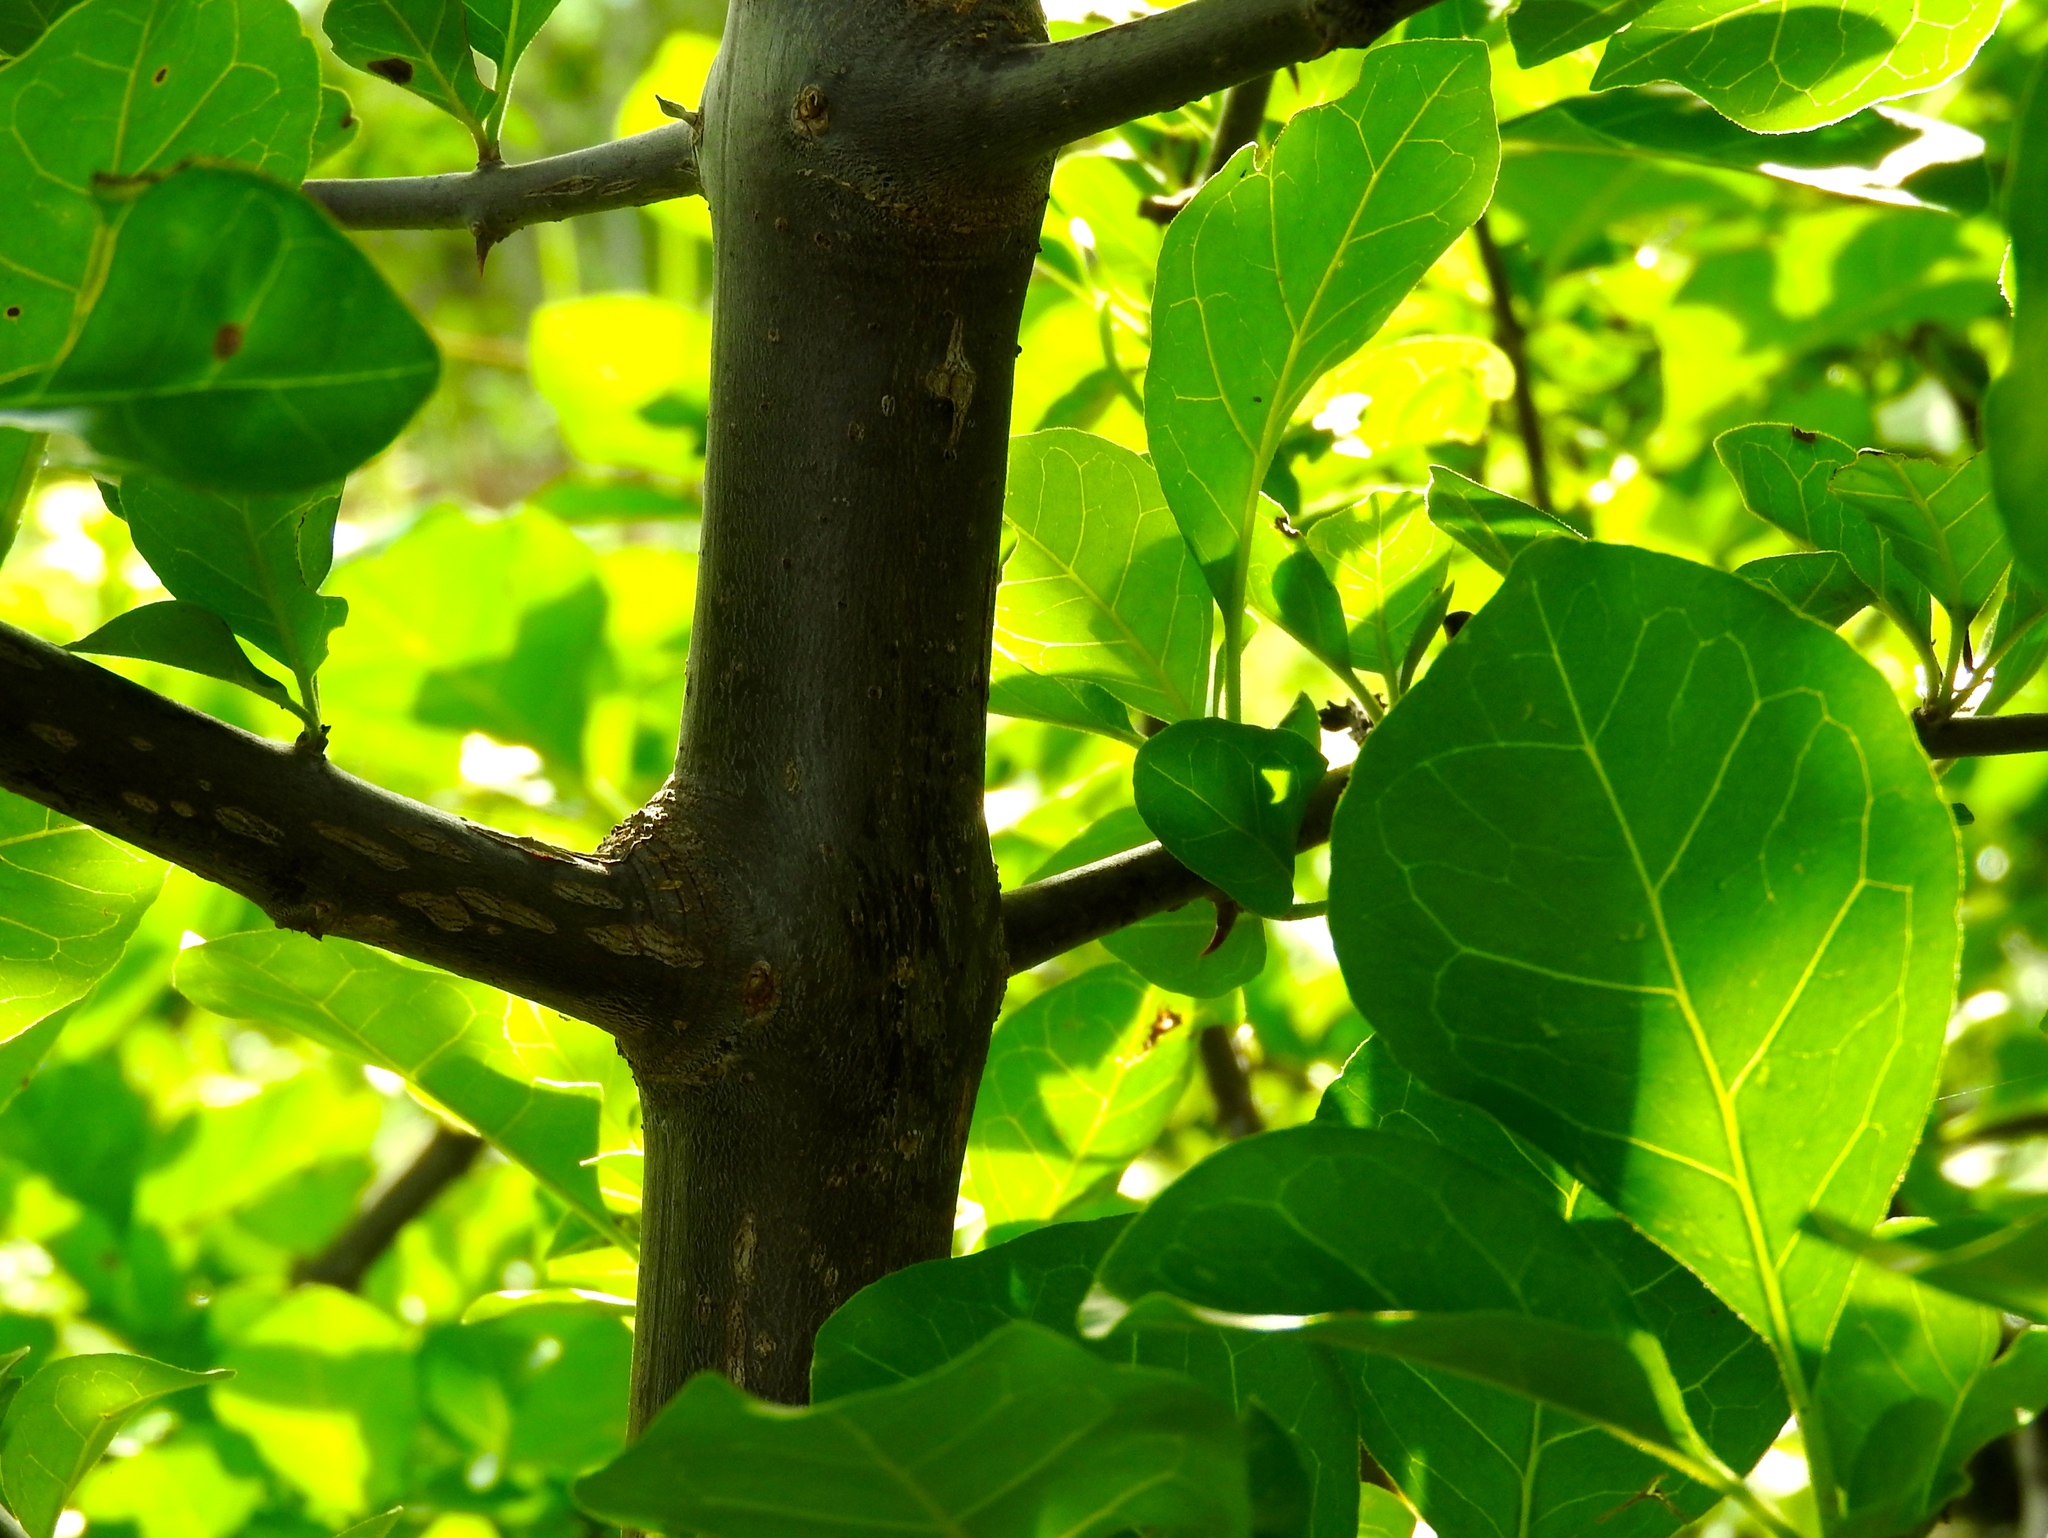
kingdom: Plantae
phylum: Tracheophyta
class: Magnoliopsida
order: Caryophyllales
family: Nyctaginaceae
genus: Pisonia
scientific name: Pisonia
